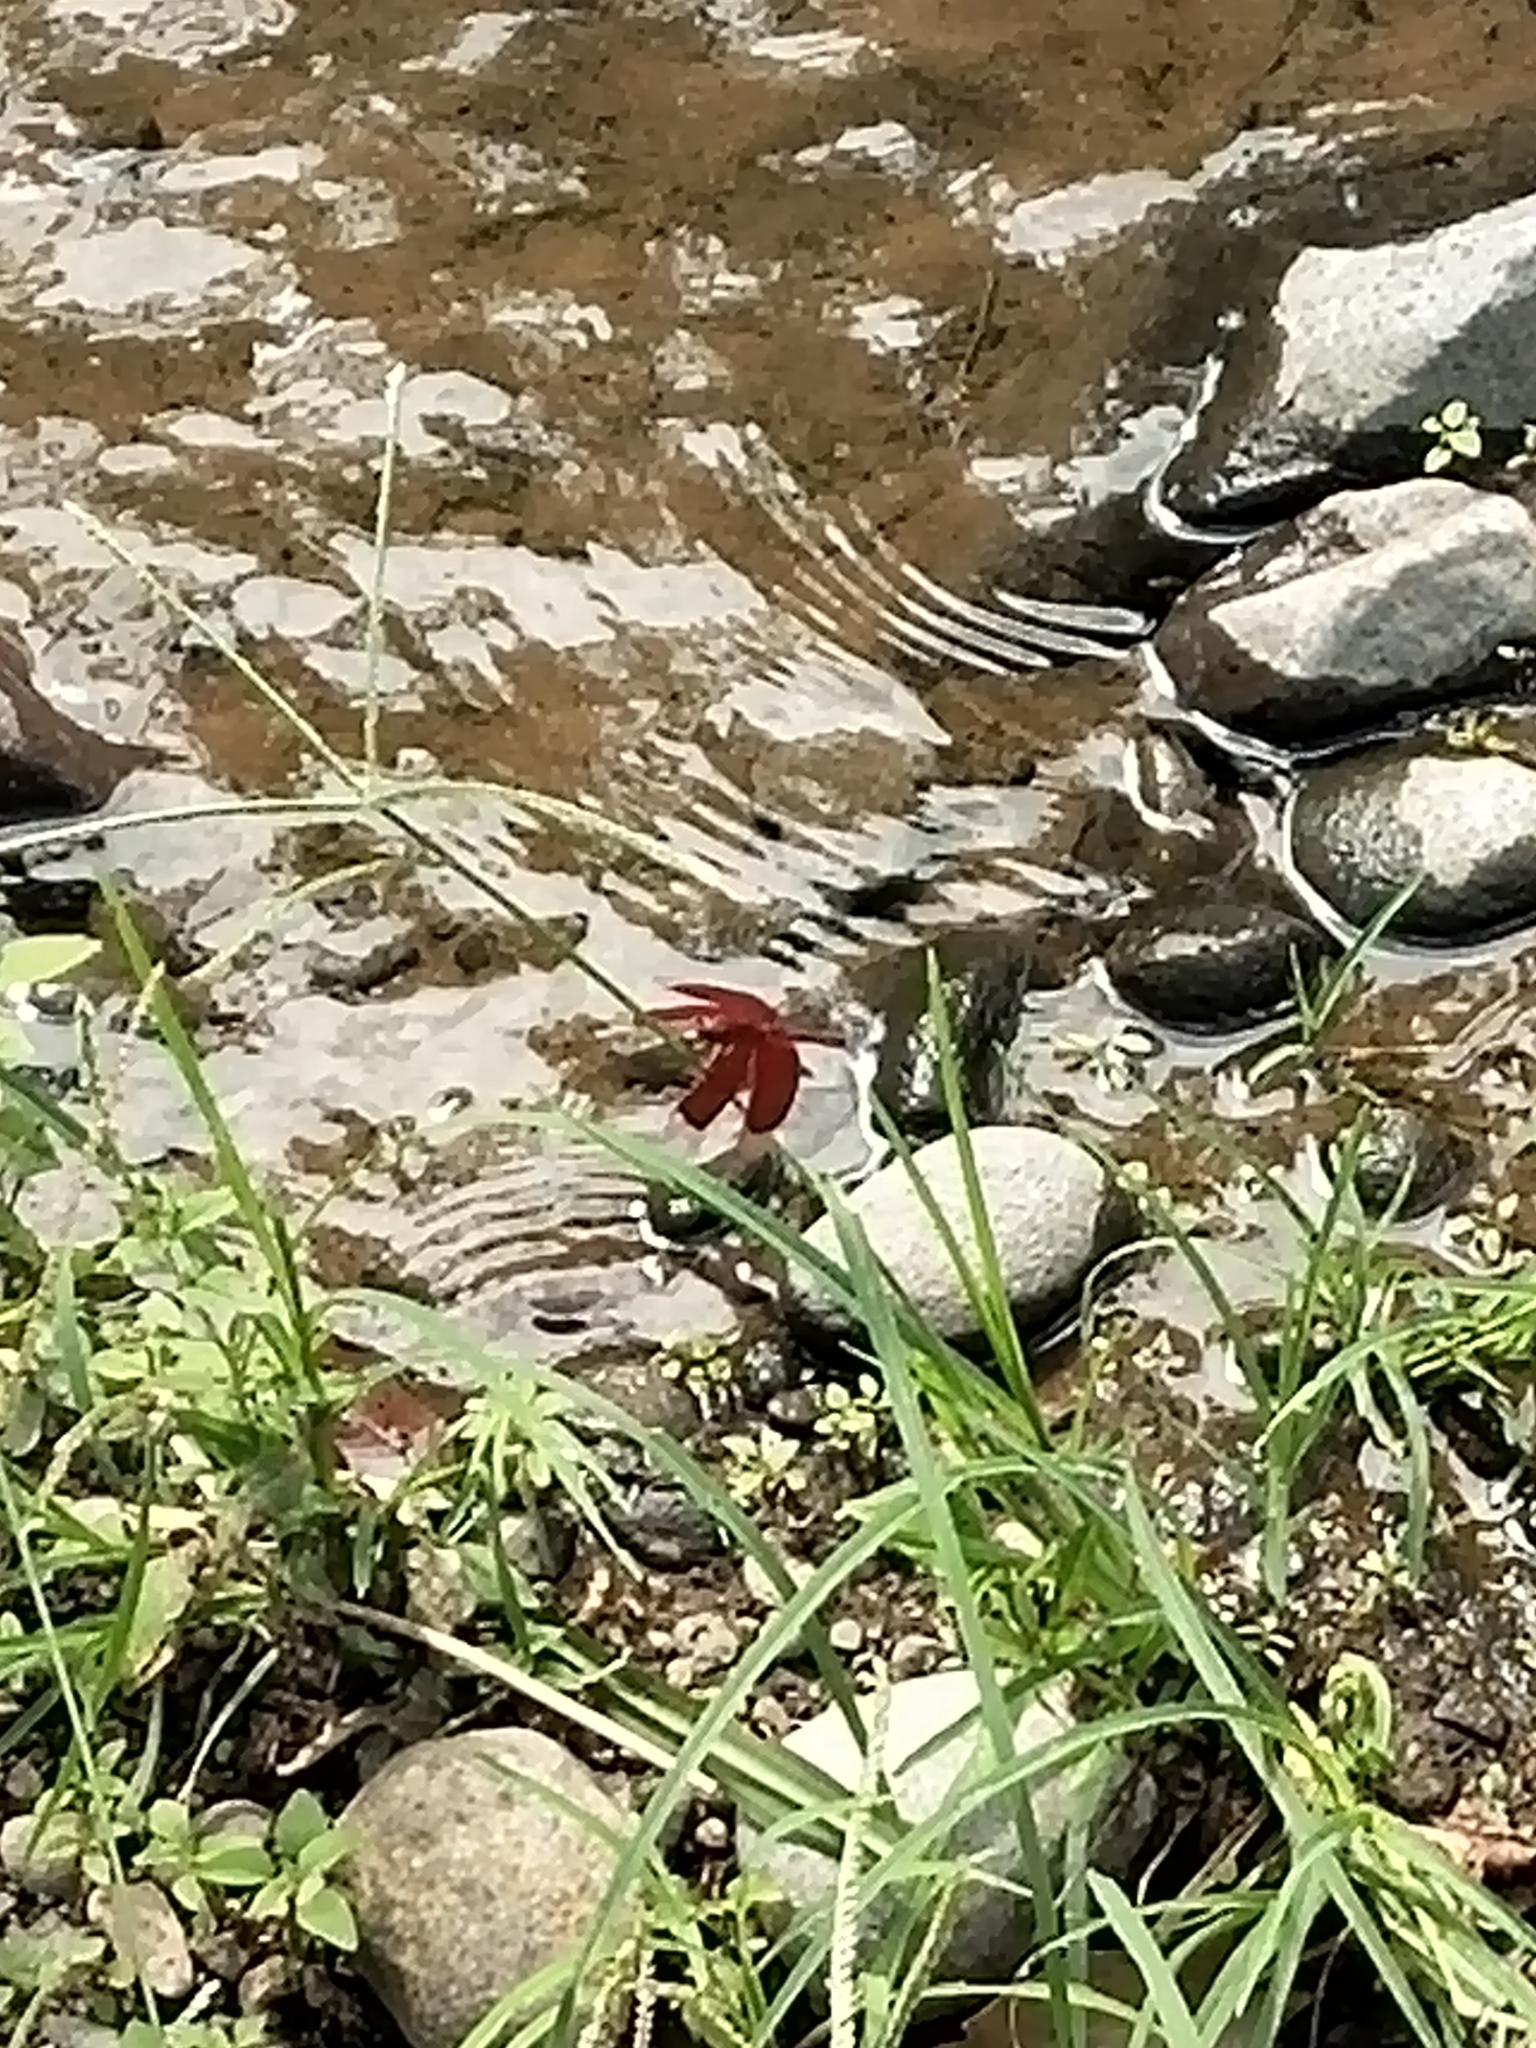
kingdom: Animalia
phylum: Arthropoda
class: Insecta
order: Odonata
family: Libellulidae
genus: Neurothemis
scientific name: Neurothemis ramburii
